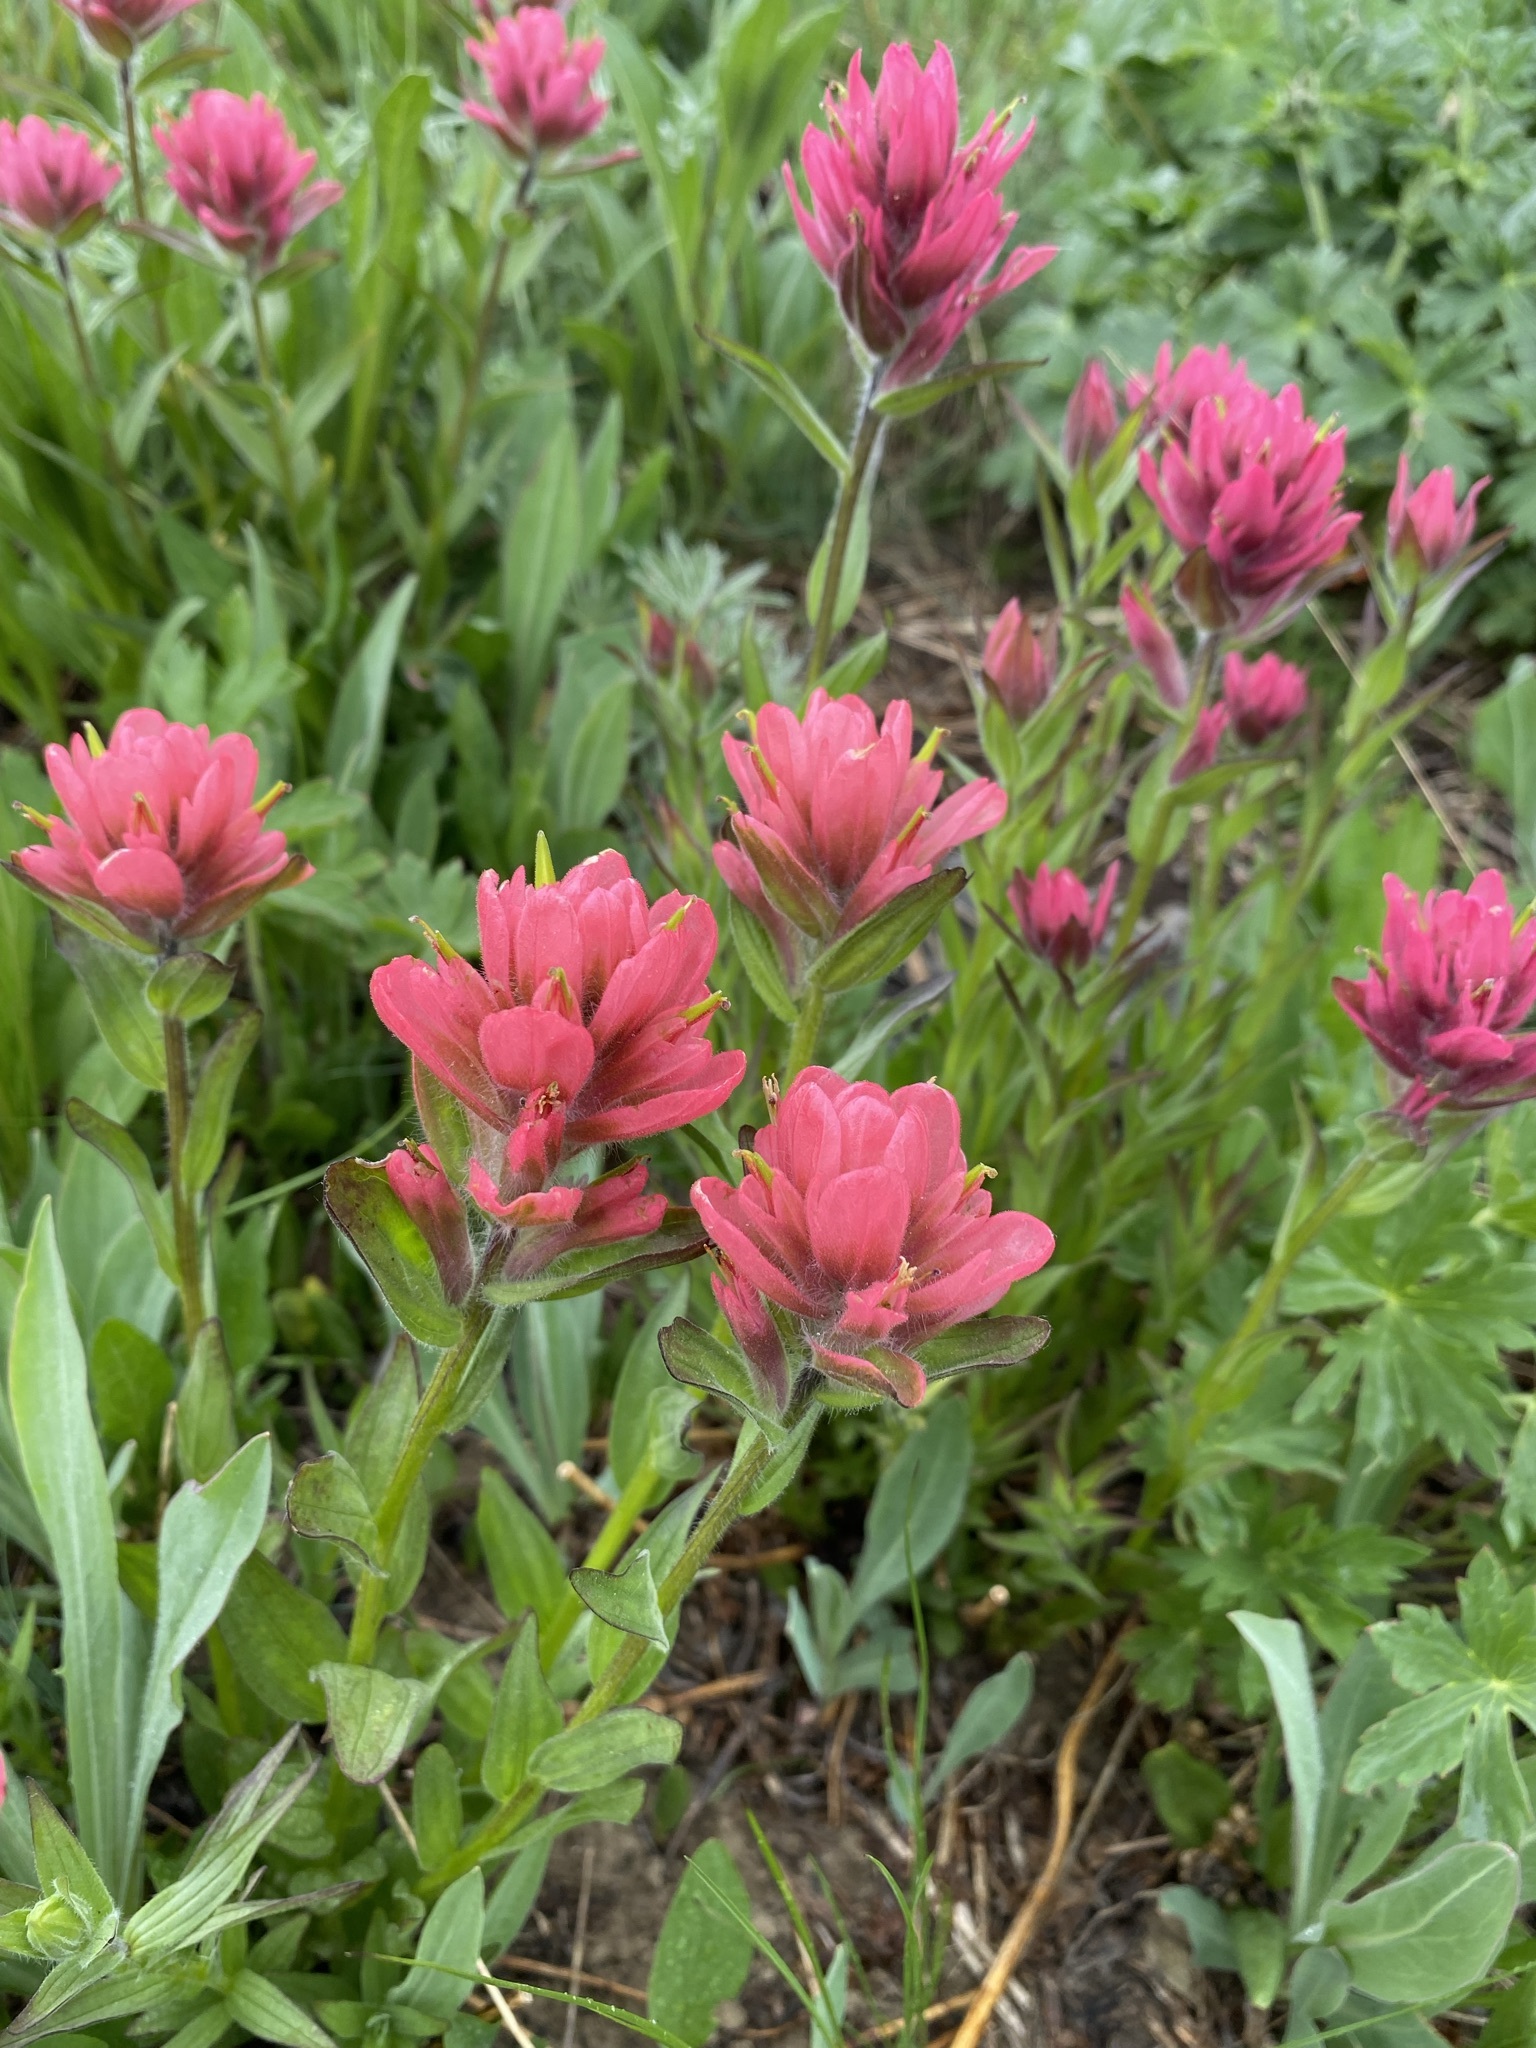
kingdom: Plantae
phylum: Tracheophyta
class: Magnoliopsida
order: Lamiales
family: Orobanchaceae
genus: Castilleja
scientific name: Castilleja rhexifolia
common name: Rocky mountain paintbrush
